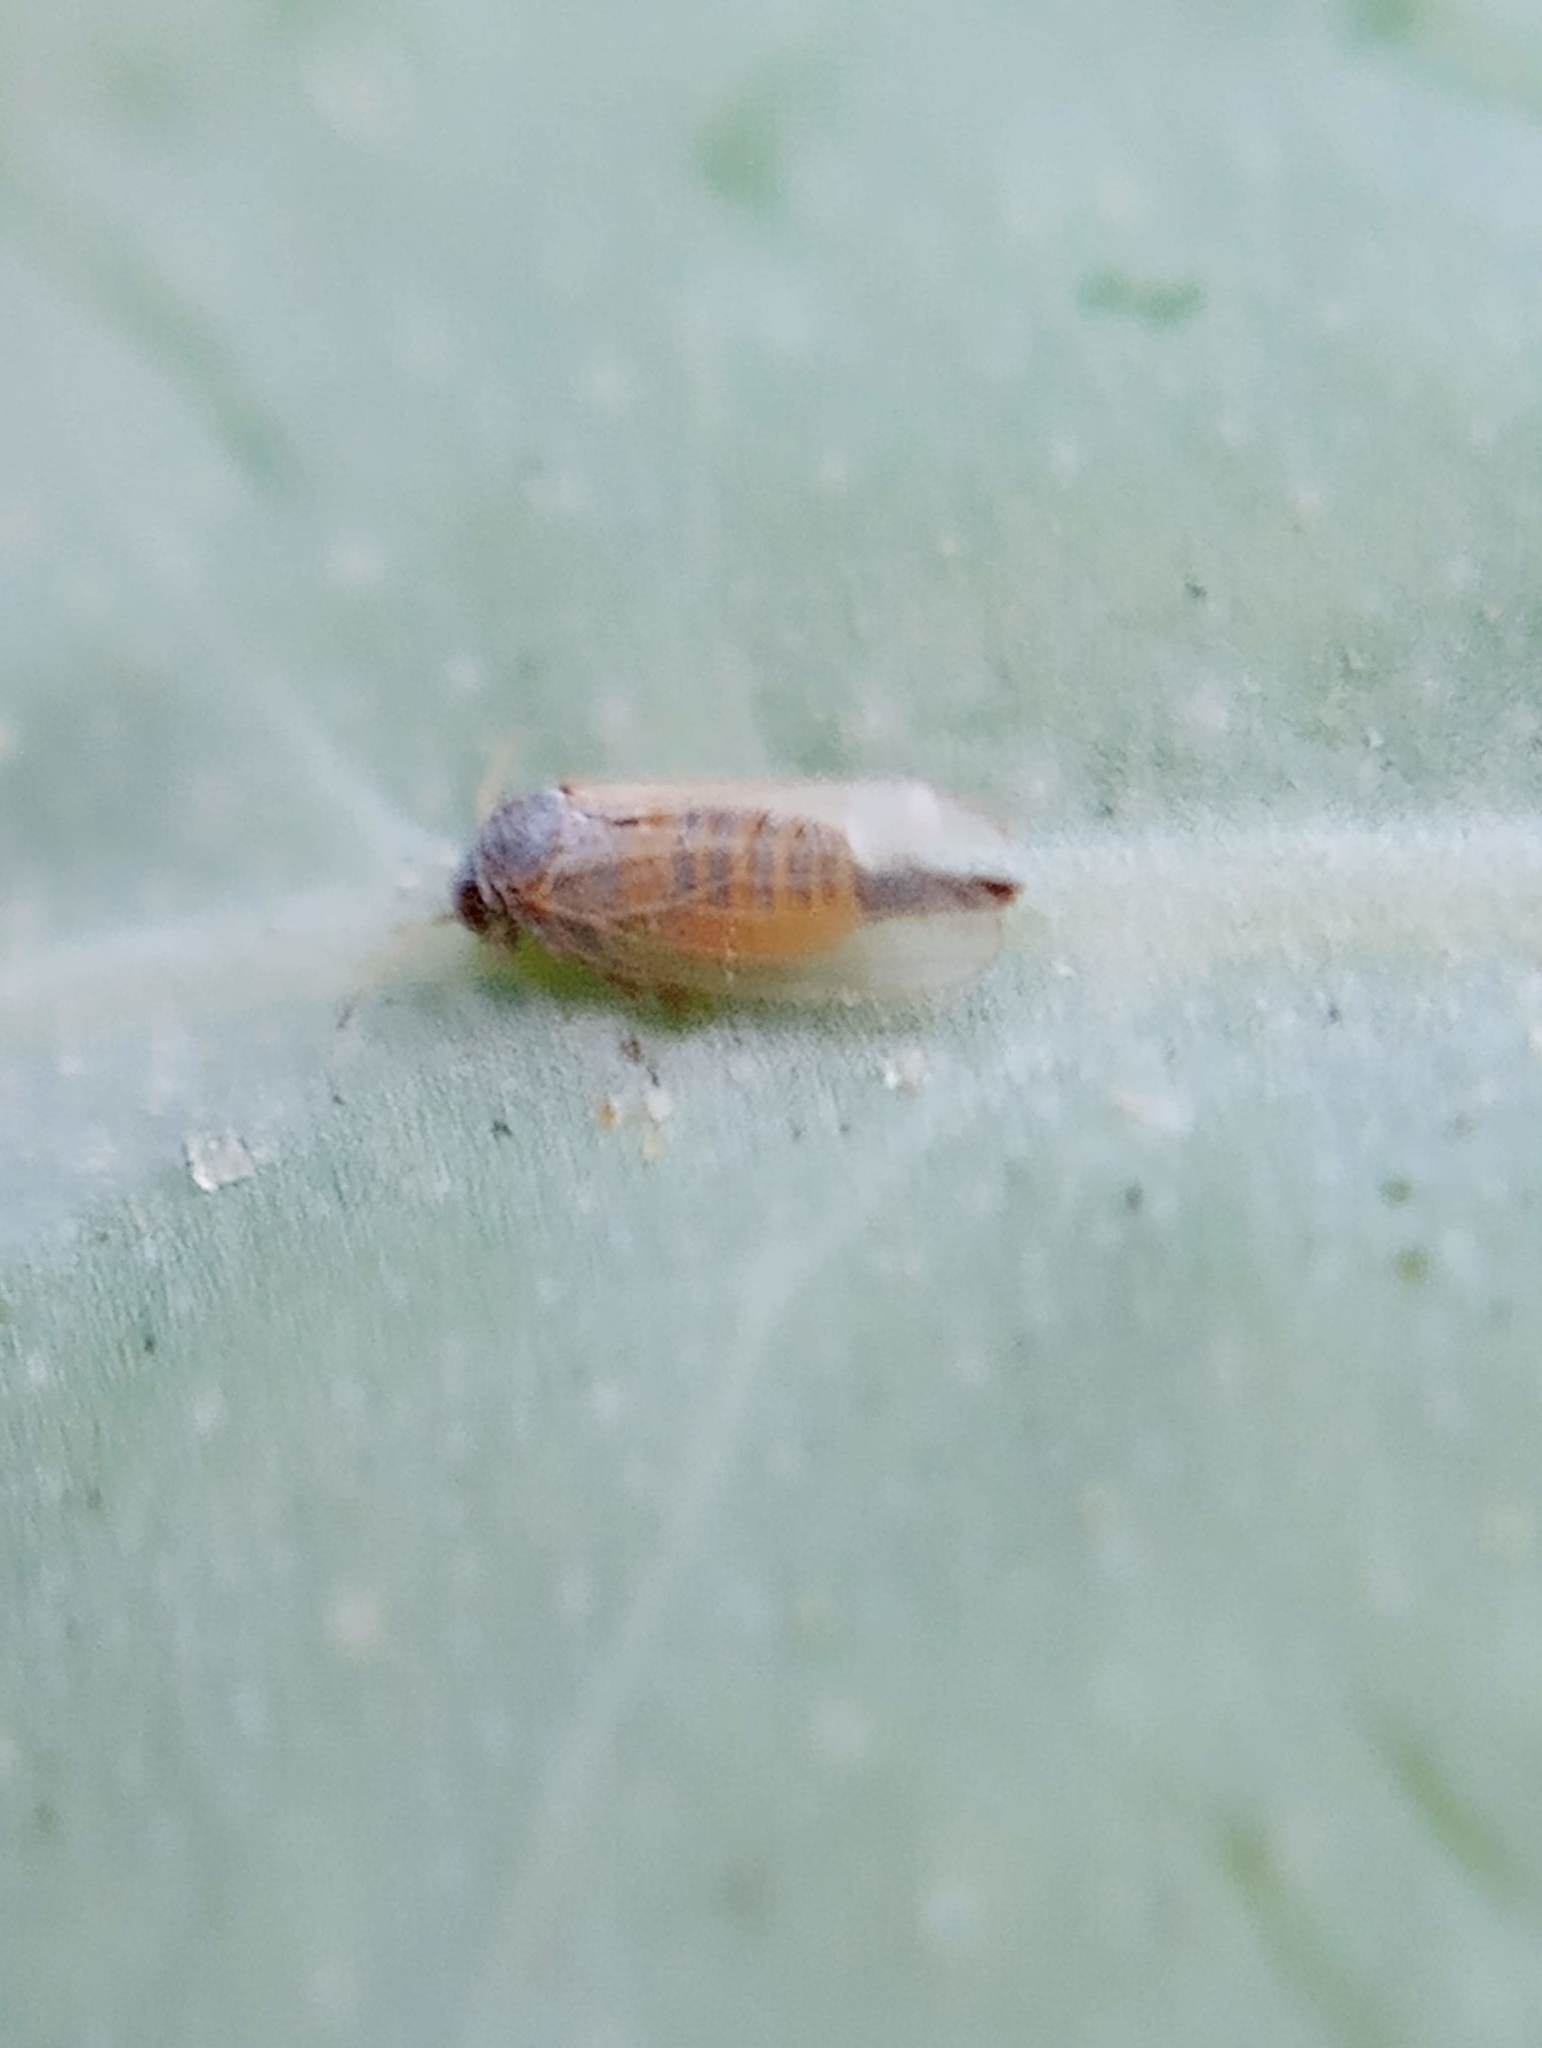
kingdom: Animalia
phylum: Arthropoda
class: Insecta
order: Hemiptera
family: Aphalaridae
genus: Ctenarytaina
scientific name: Ctenarytaina eucalypti
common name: Blue gum psyllid
